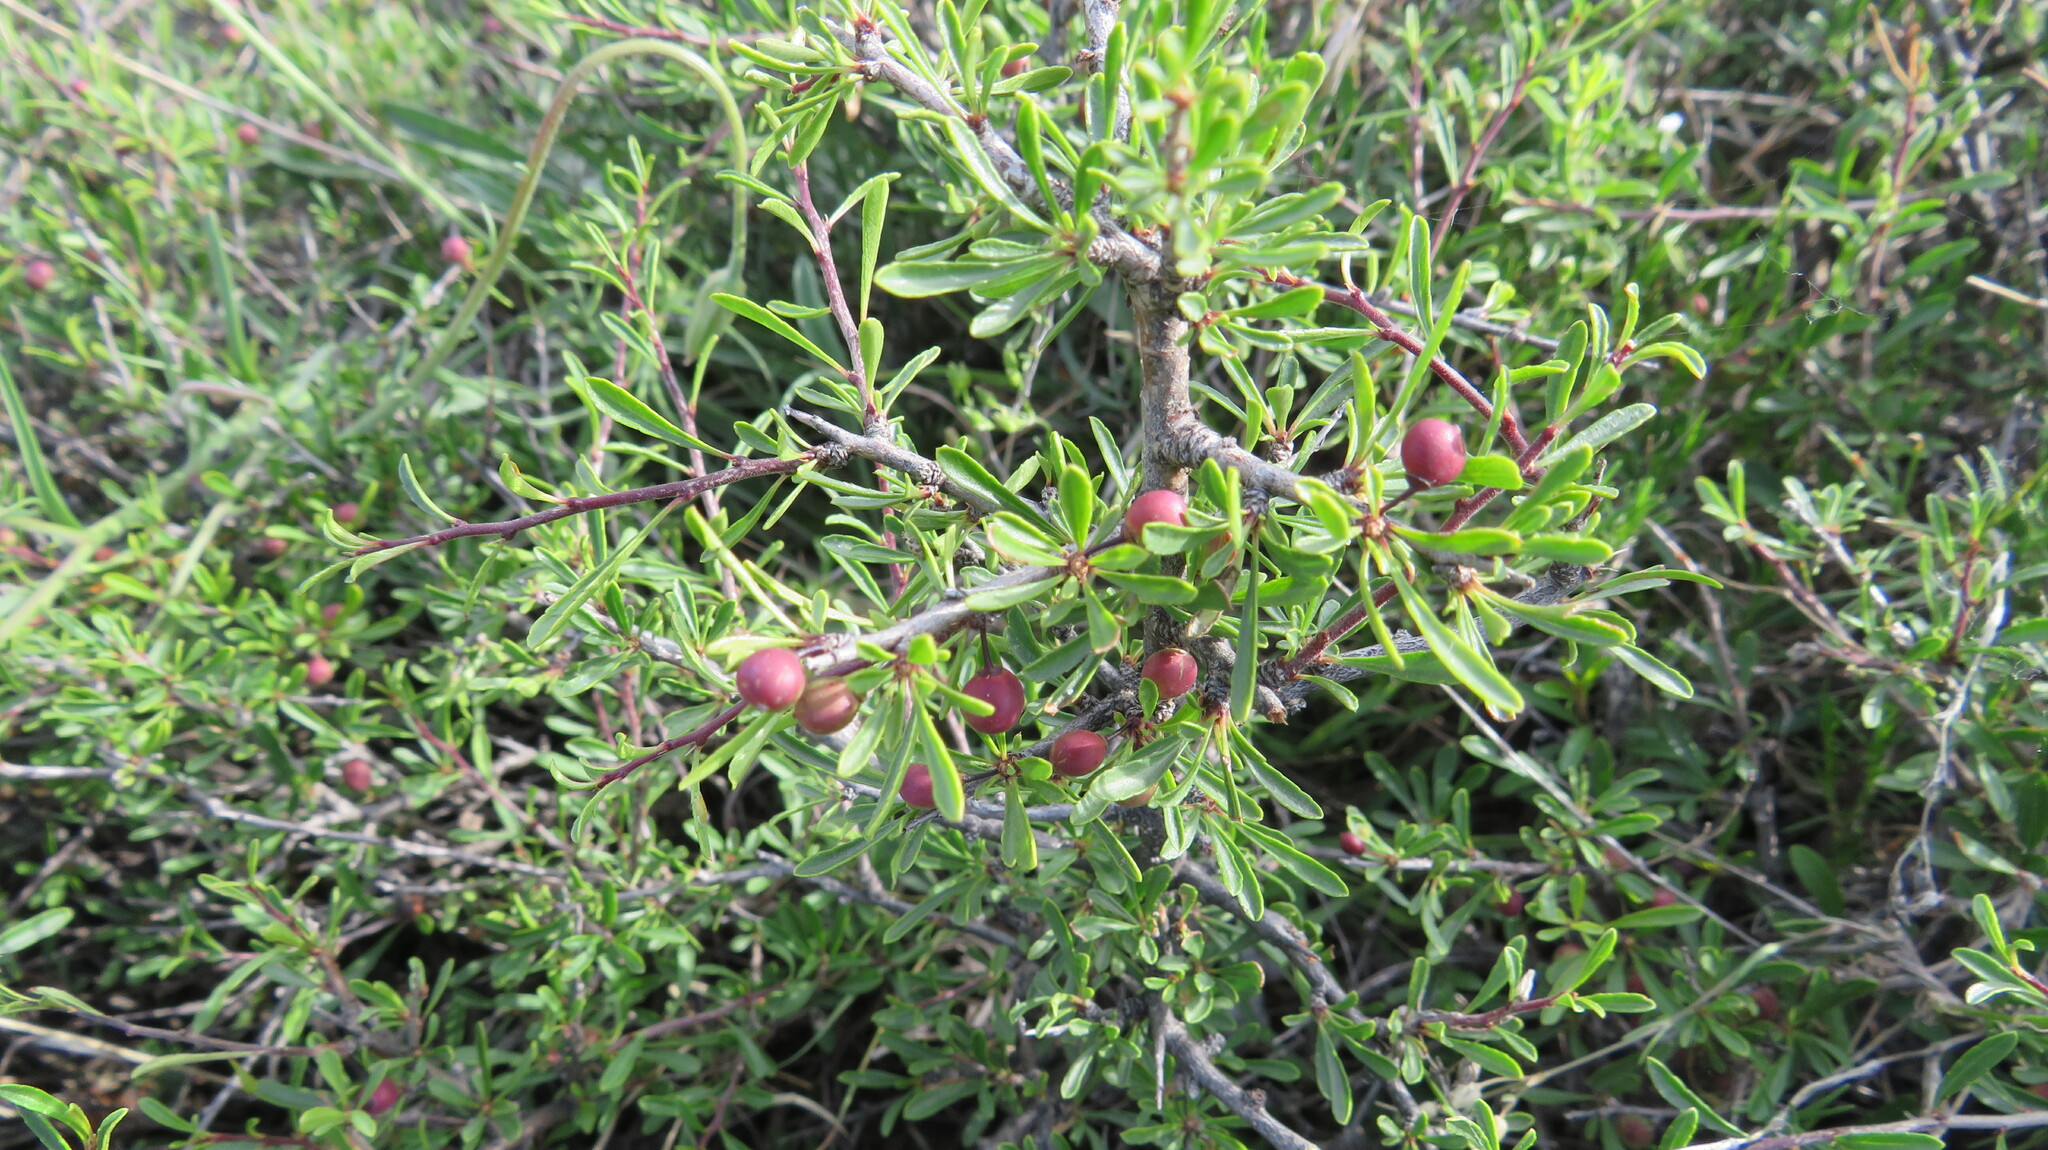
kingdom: Plantae
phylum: Tracheophyta
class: Magnoliopsida
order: Rosales
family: Rhamnaceae
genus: Rhamnus
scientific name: Rhamnus erythroxyloides
